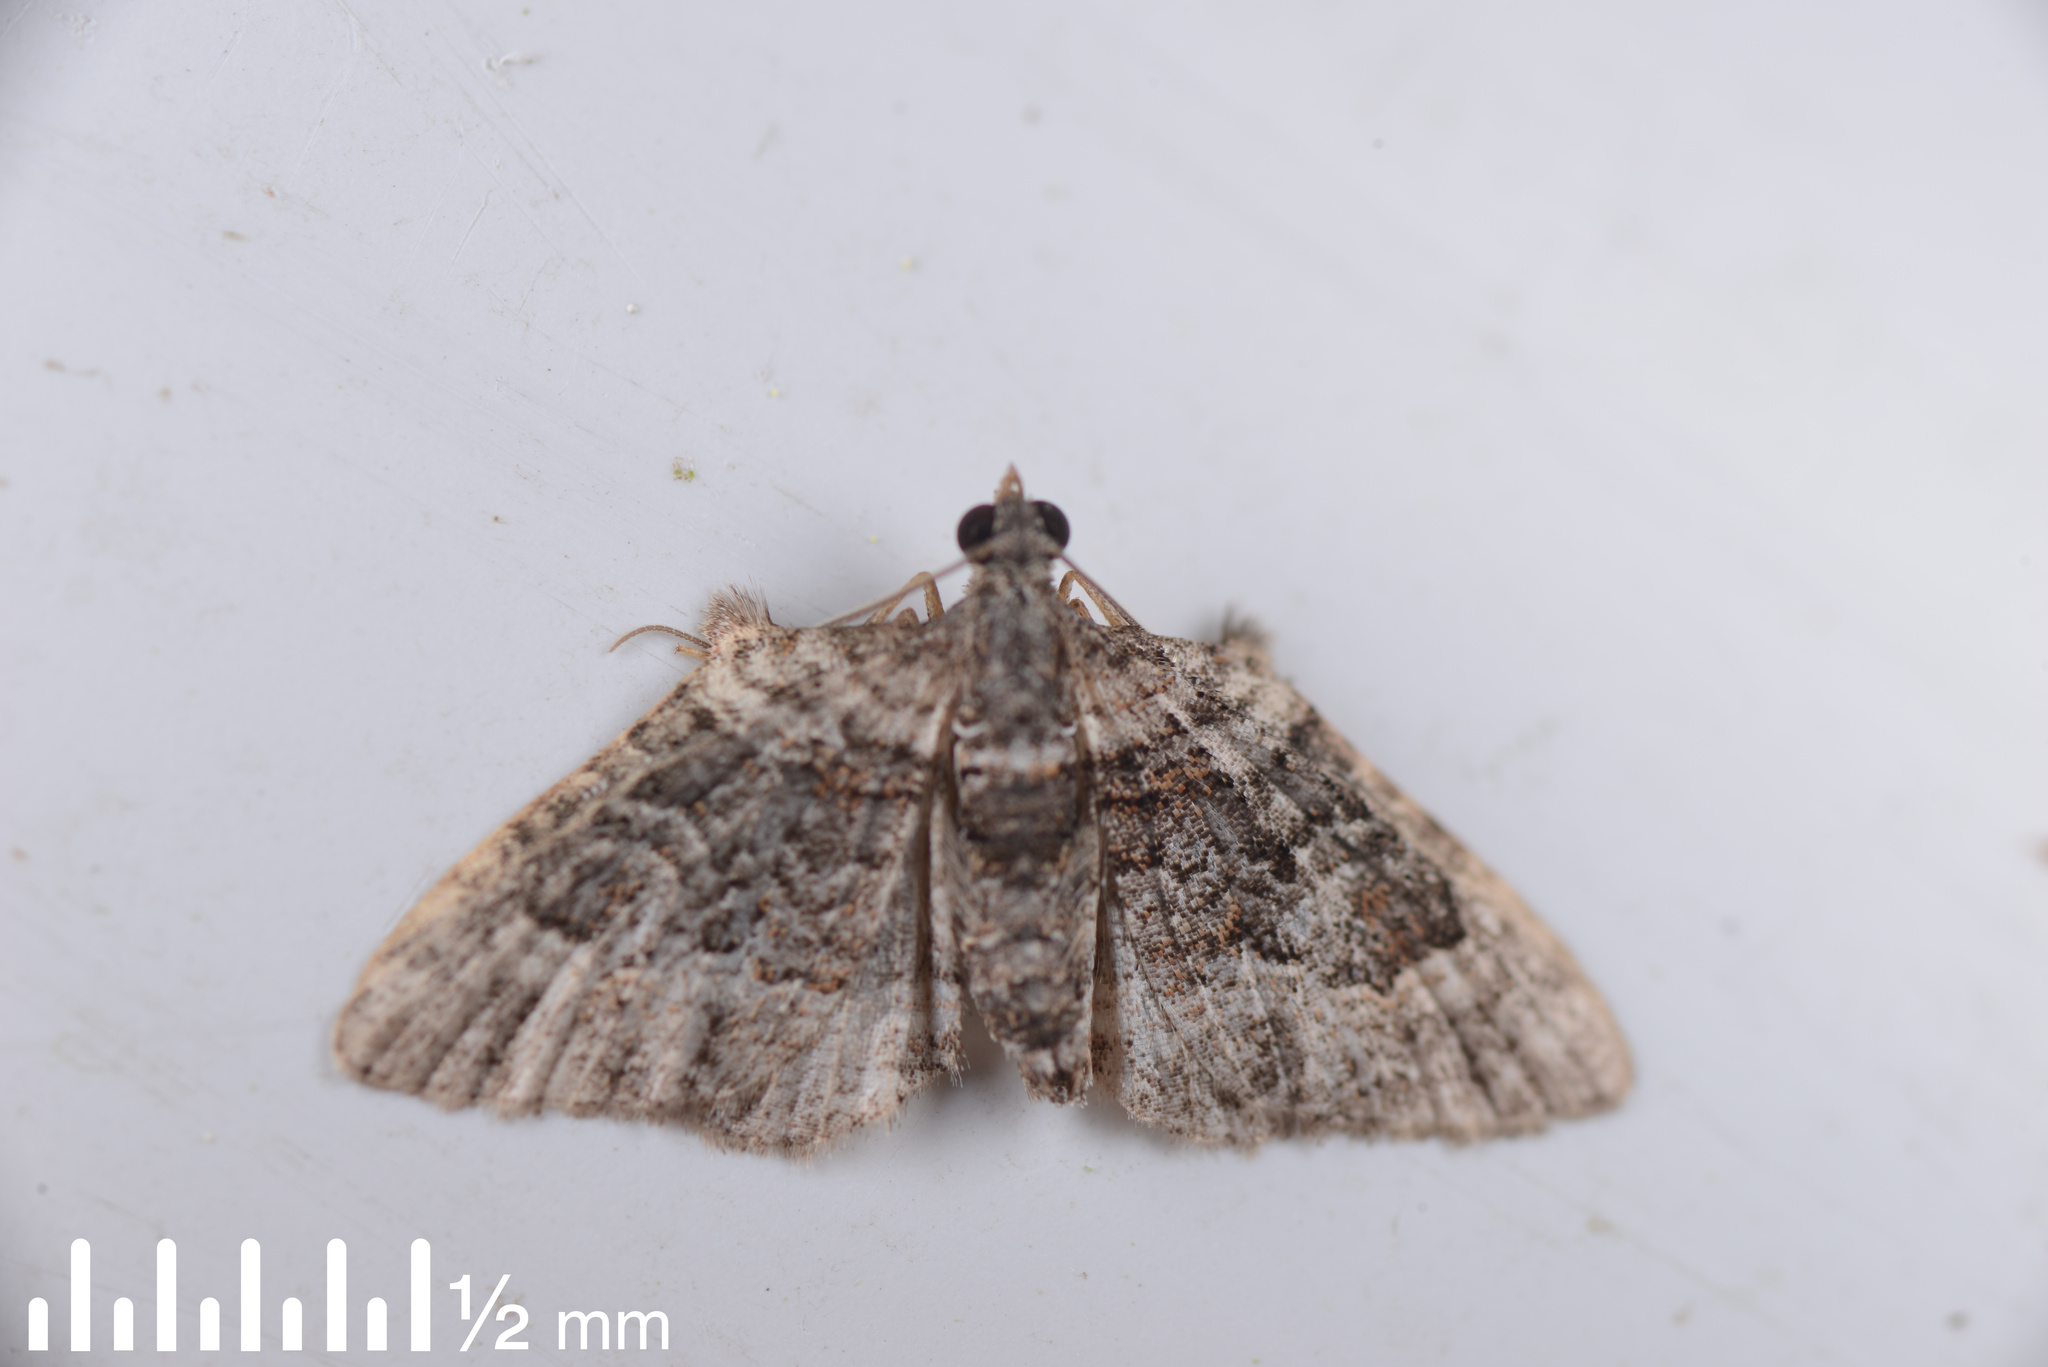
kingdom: Animalia
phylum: Arthropoda
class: Insecta
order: Lepidoptera
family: Geometridae
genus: Phrissogonus
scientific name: Phrissogonus laticostata
